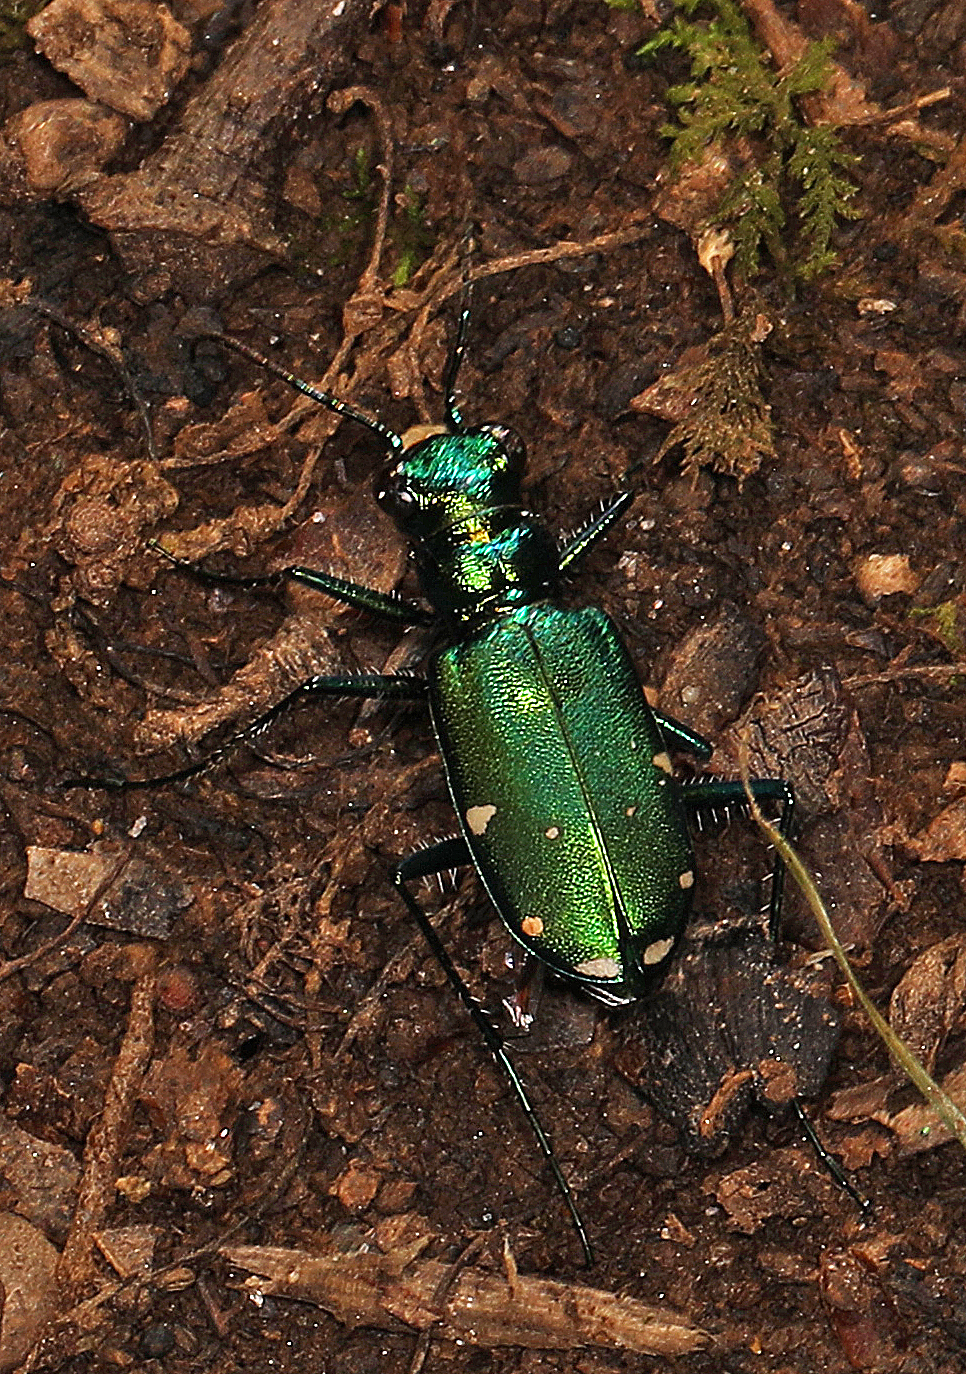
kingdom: Animalia
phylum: Arthropoda
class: Insecta
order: Coleoptera
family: Carabidae
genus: Cicindela
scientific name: Cicindela sexguttata
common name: Six-spotted tiger beetle
